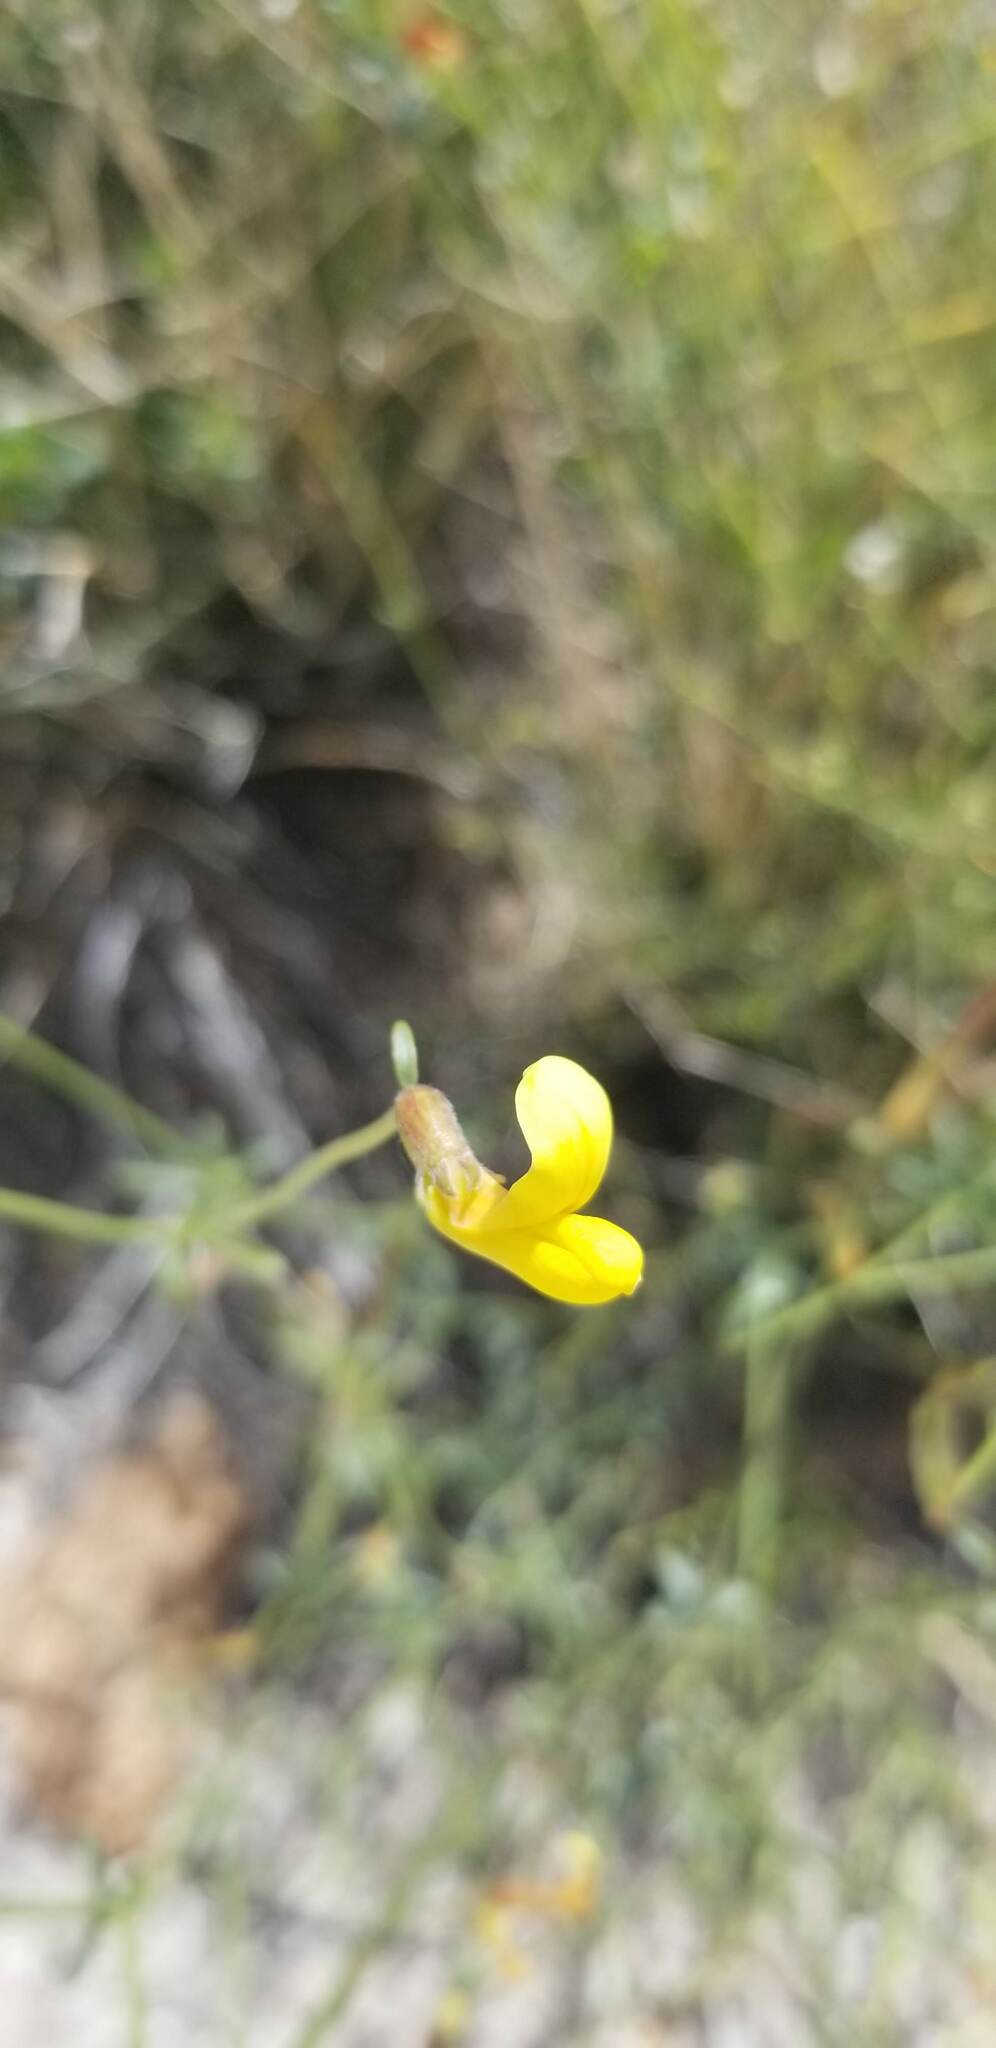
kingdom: Plantae
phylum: Tracheophyta
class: Magnoliopsida
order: Fabales
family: Fabaceae
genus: Acmispon
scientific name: Acmispon rigidus
